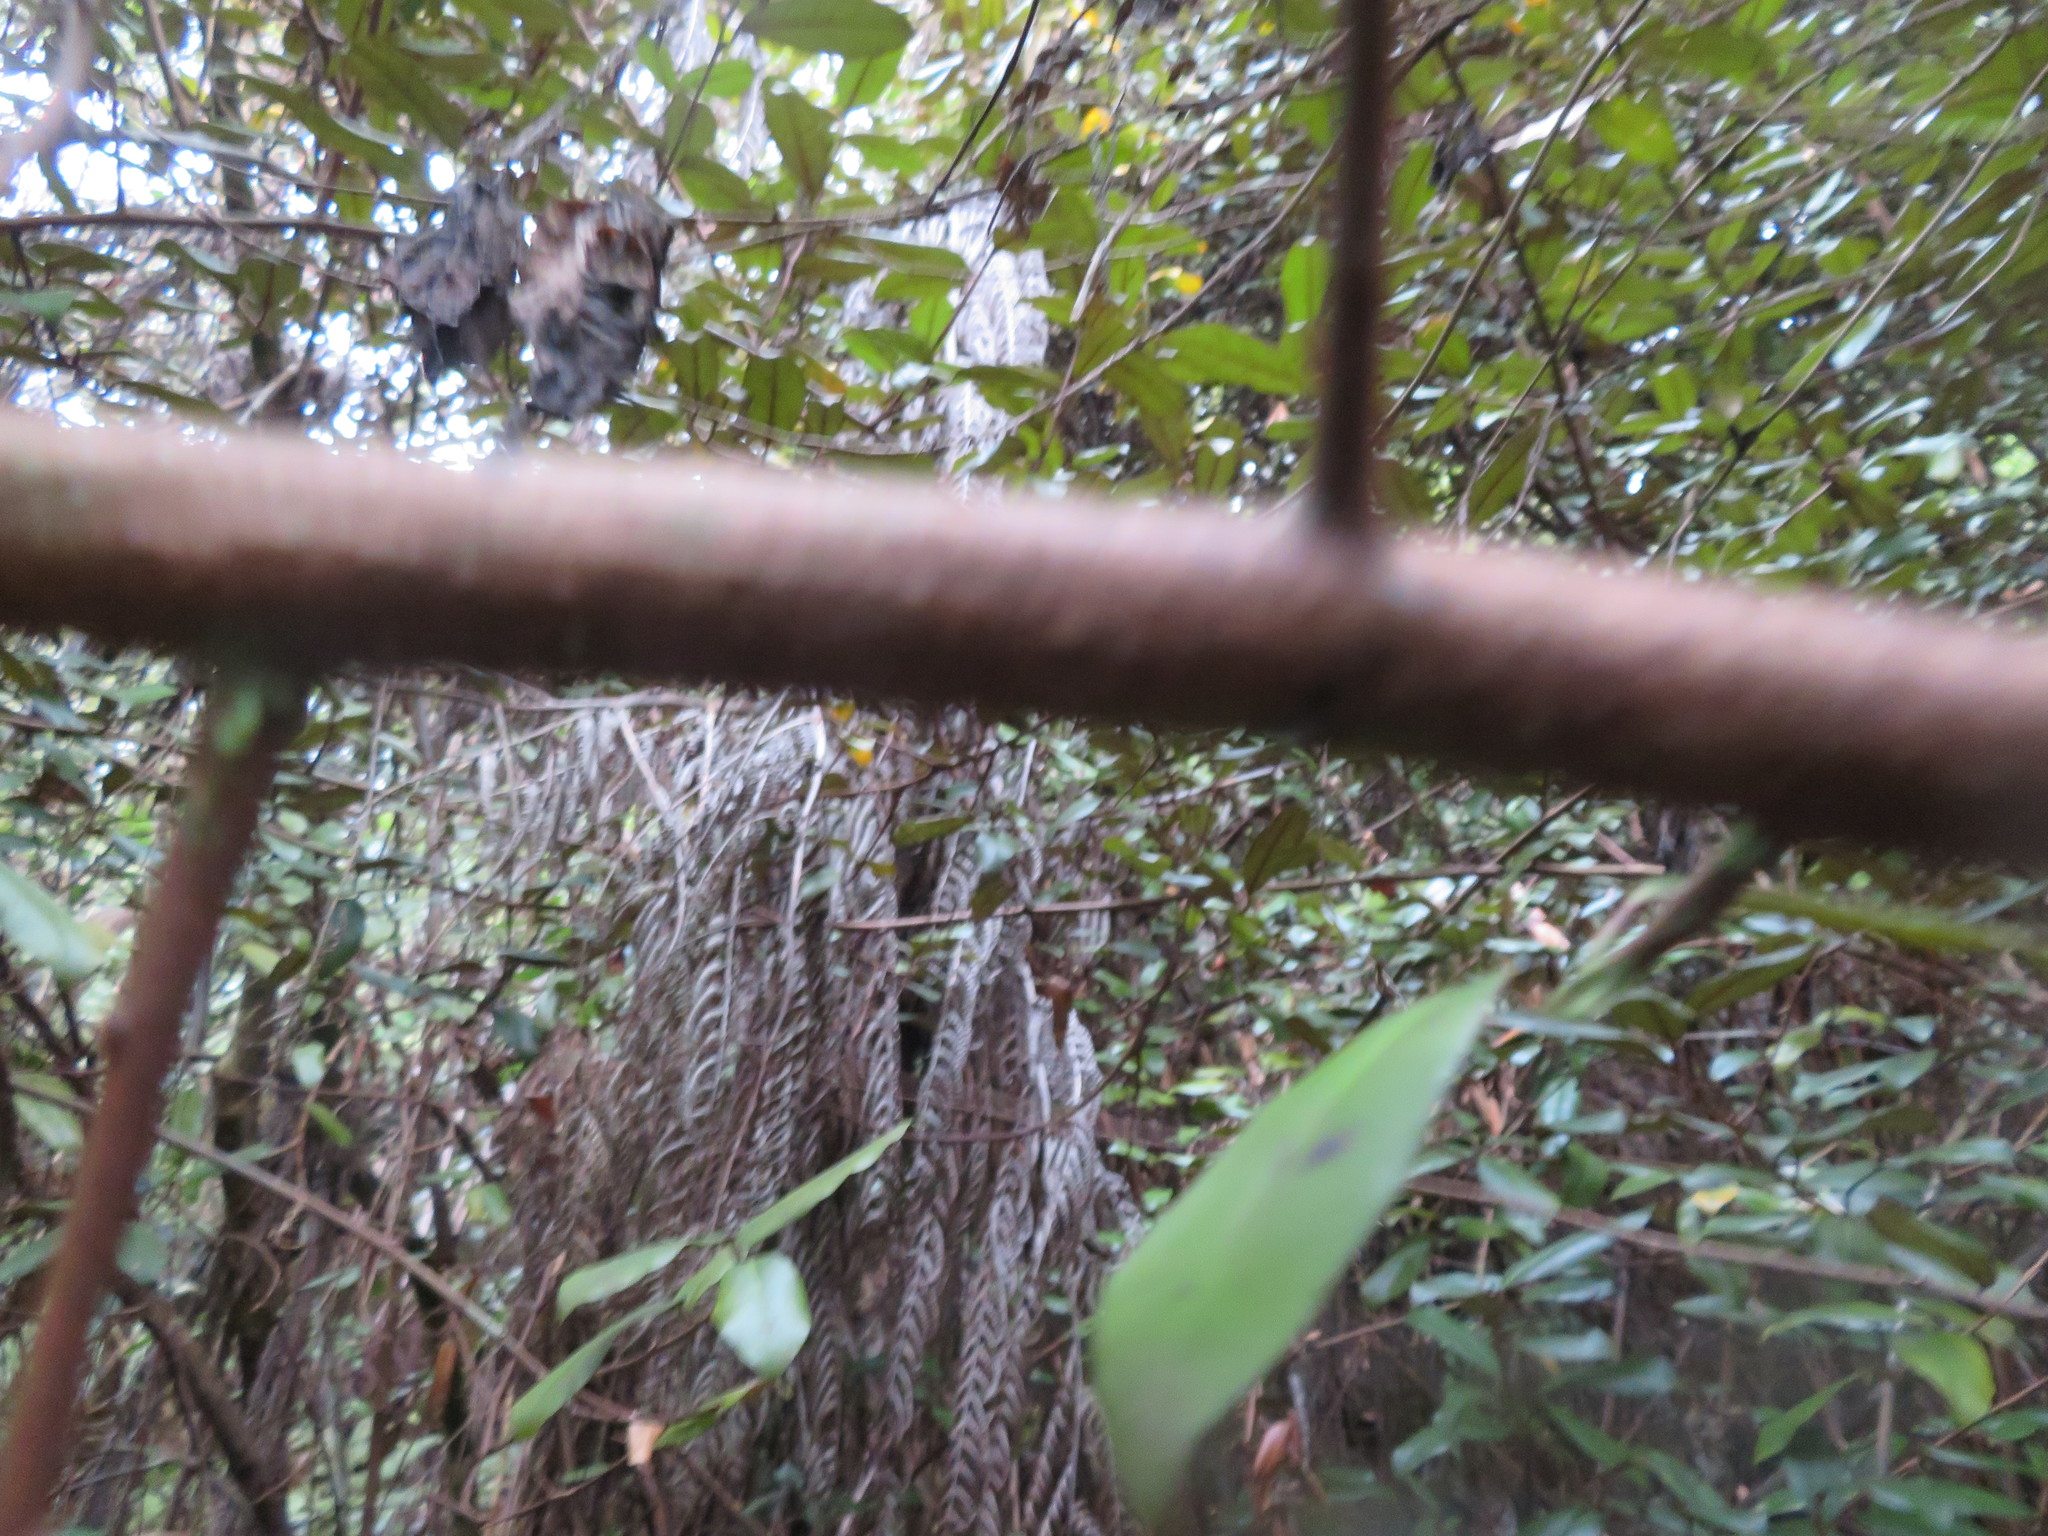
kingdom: Plantae
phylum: Tracheophyta
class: Magnoliopsida
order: Rosales
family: Elaeagnaceae
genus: Elaeagnus
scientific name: Elaeagnus reflexa
